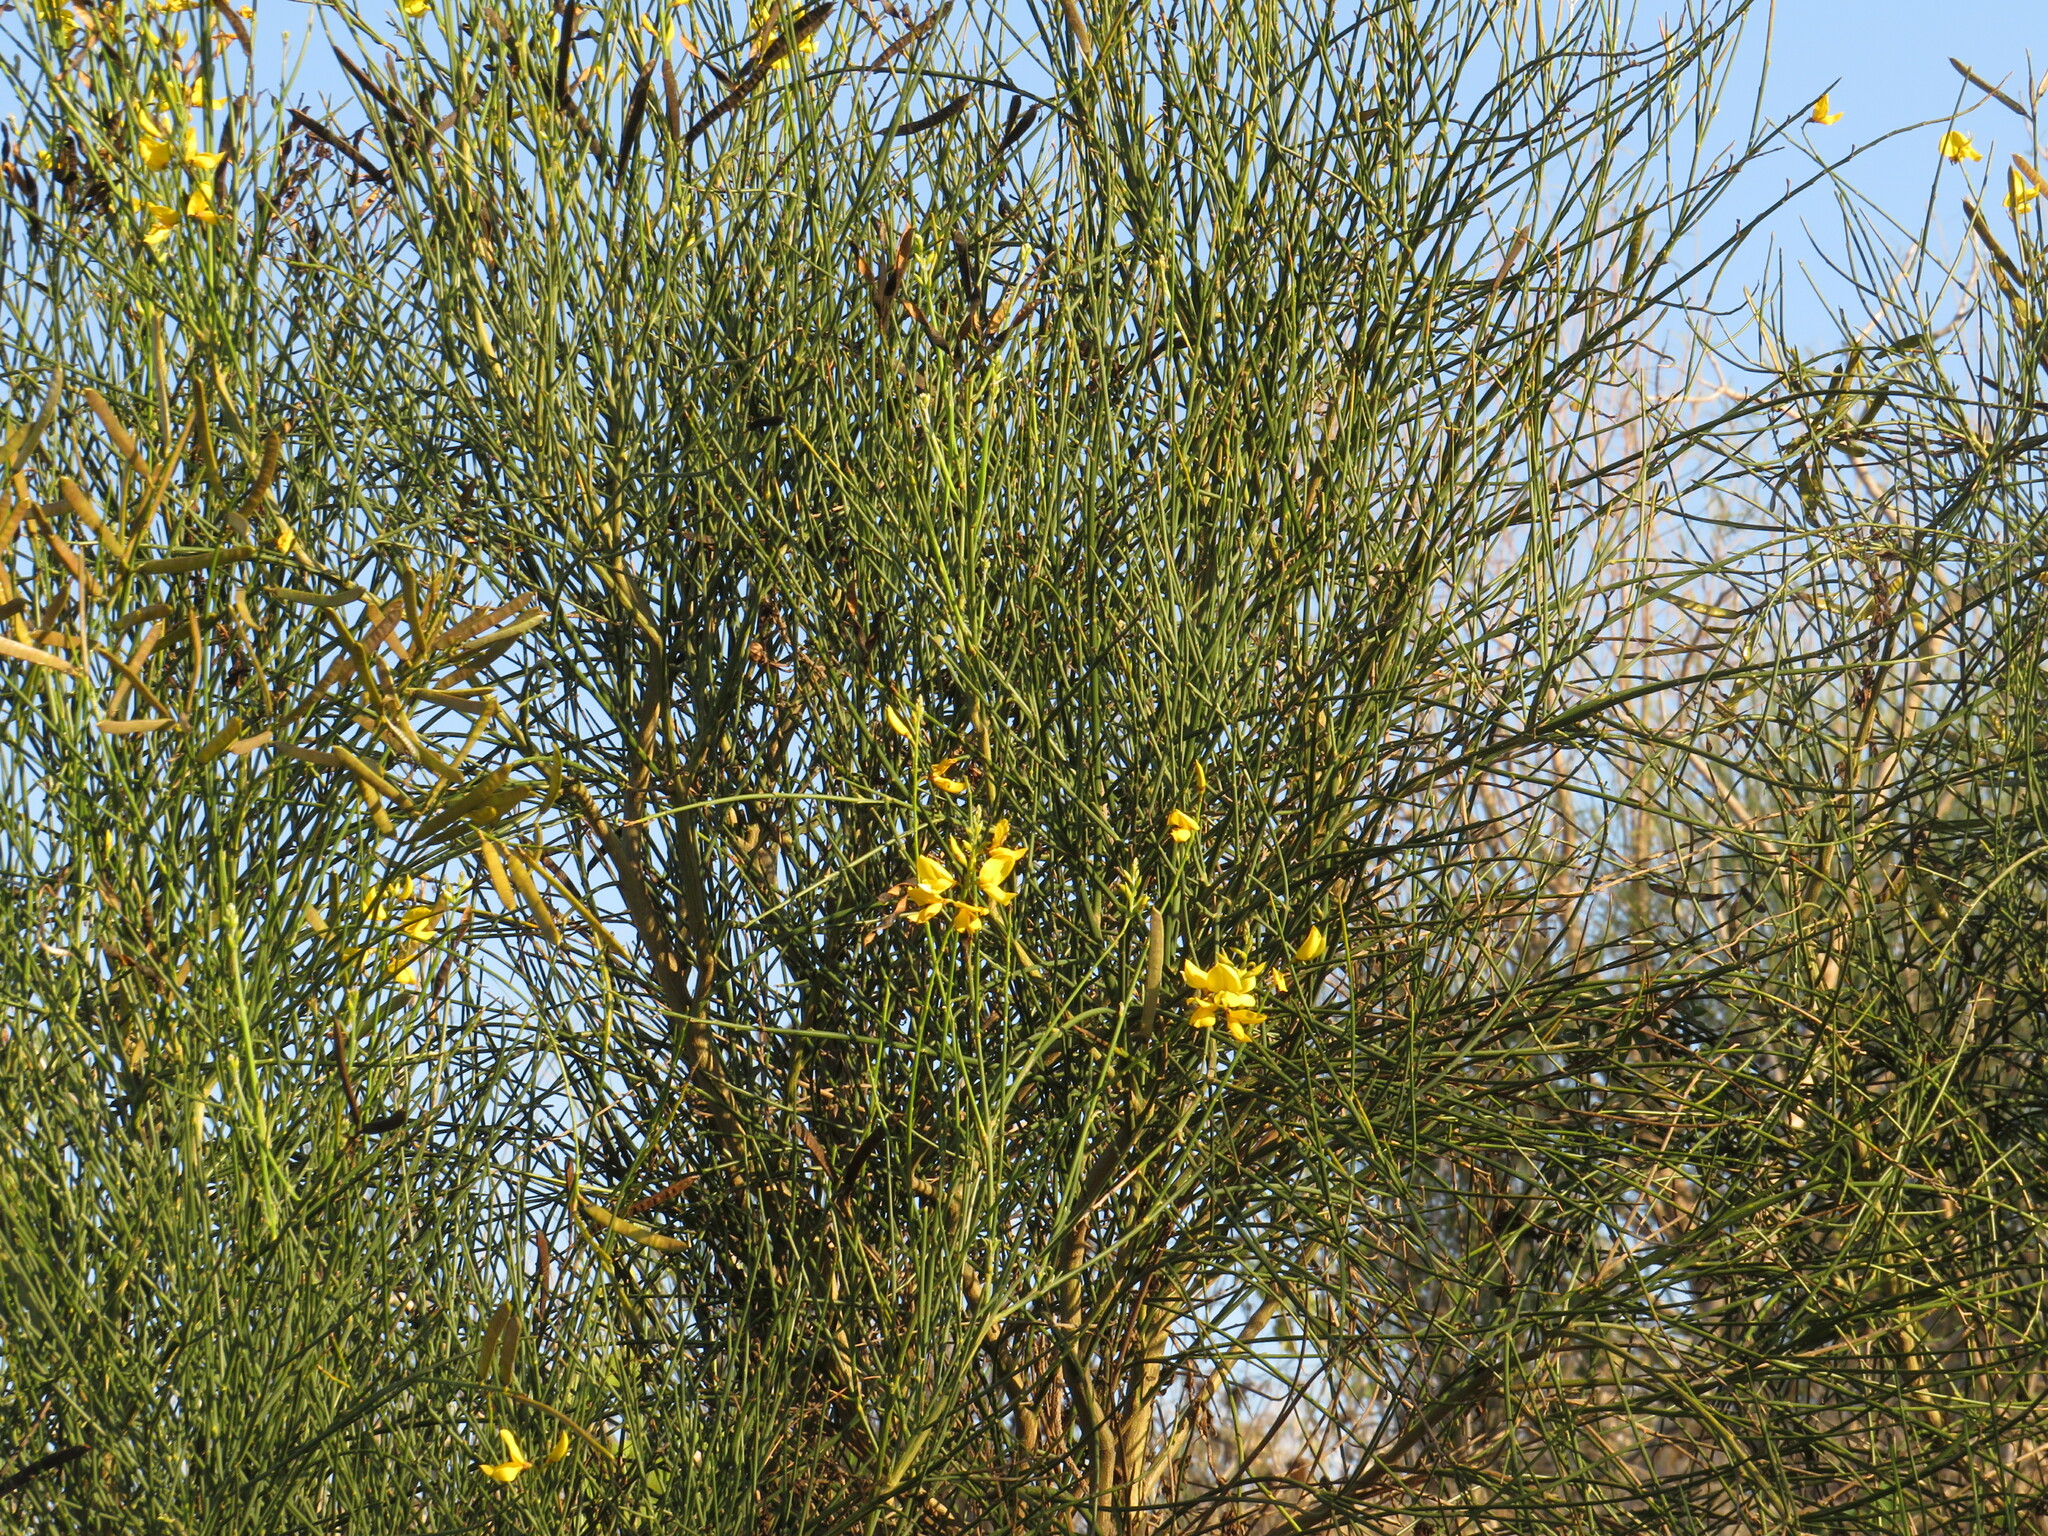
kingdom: Plantae
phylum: Tracheophyta
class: Magnoliopsida
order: Fabales
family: Fabaceae
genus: Spartium
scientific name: Spartium junceum
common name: Spanish broom
